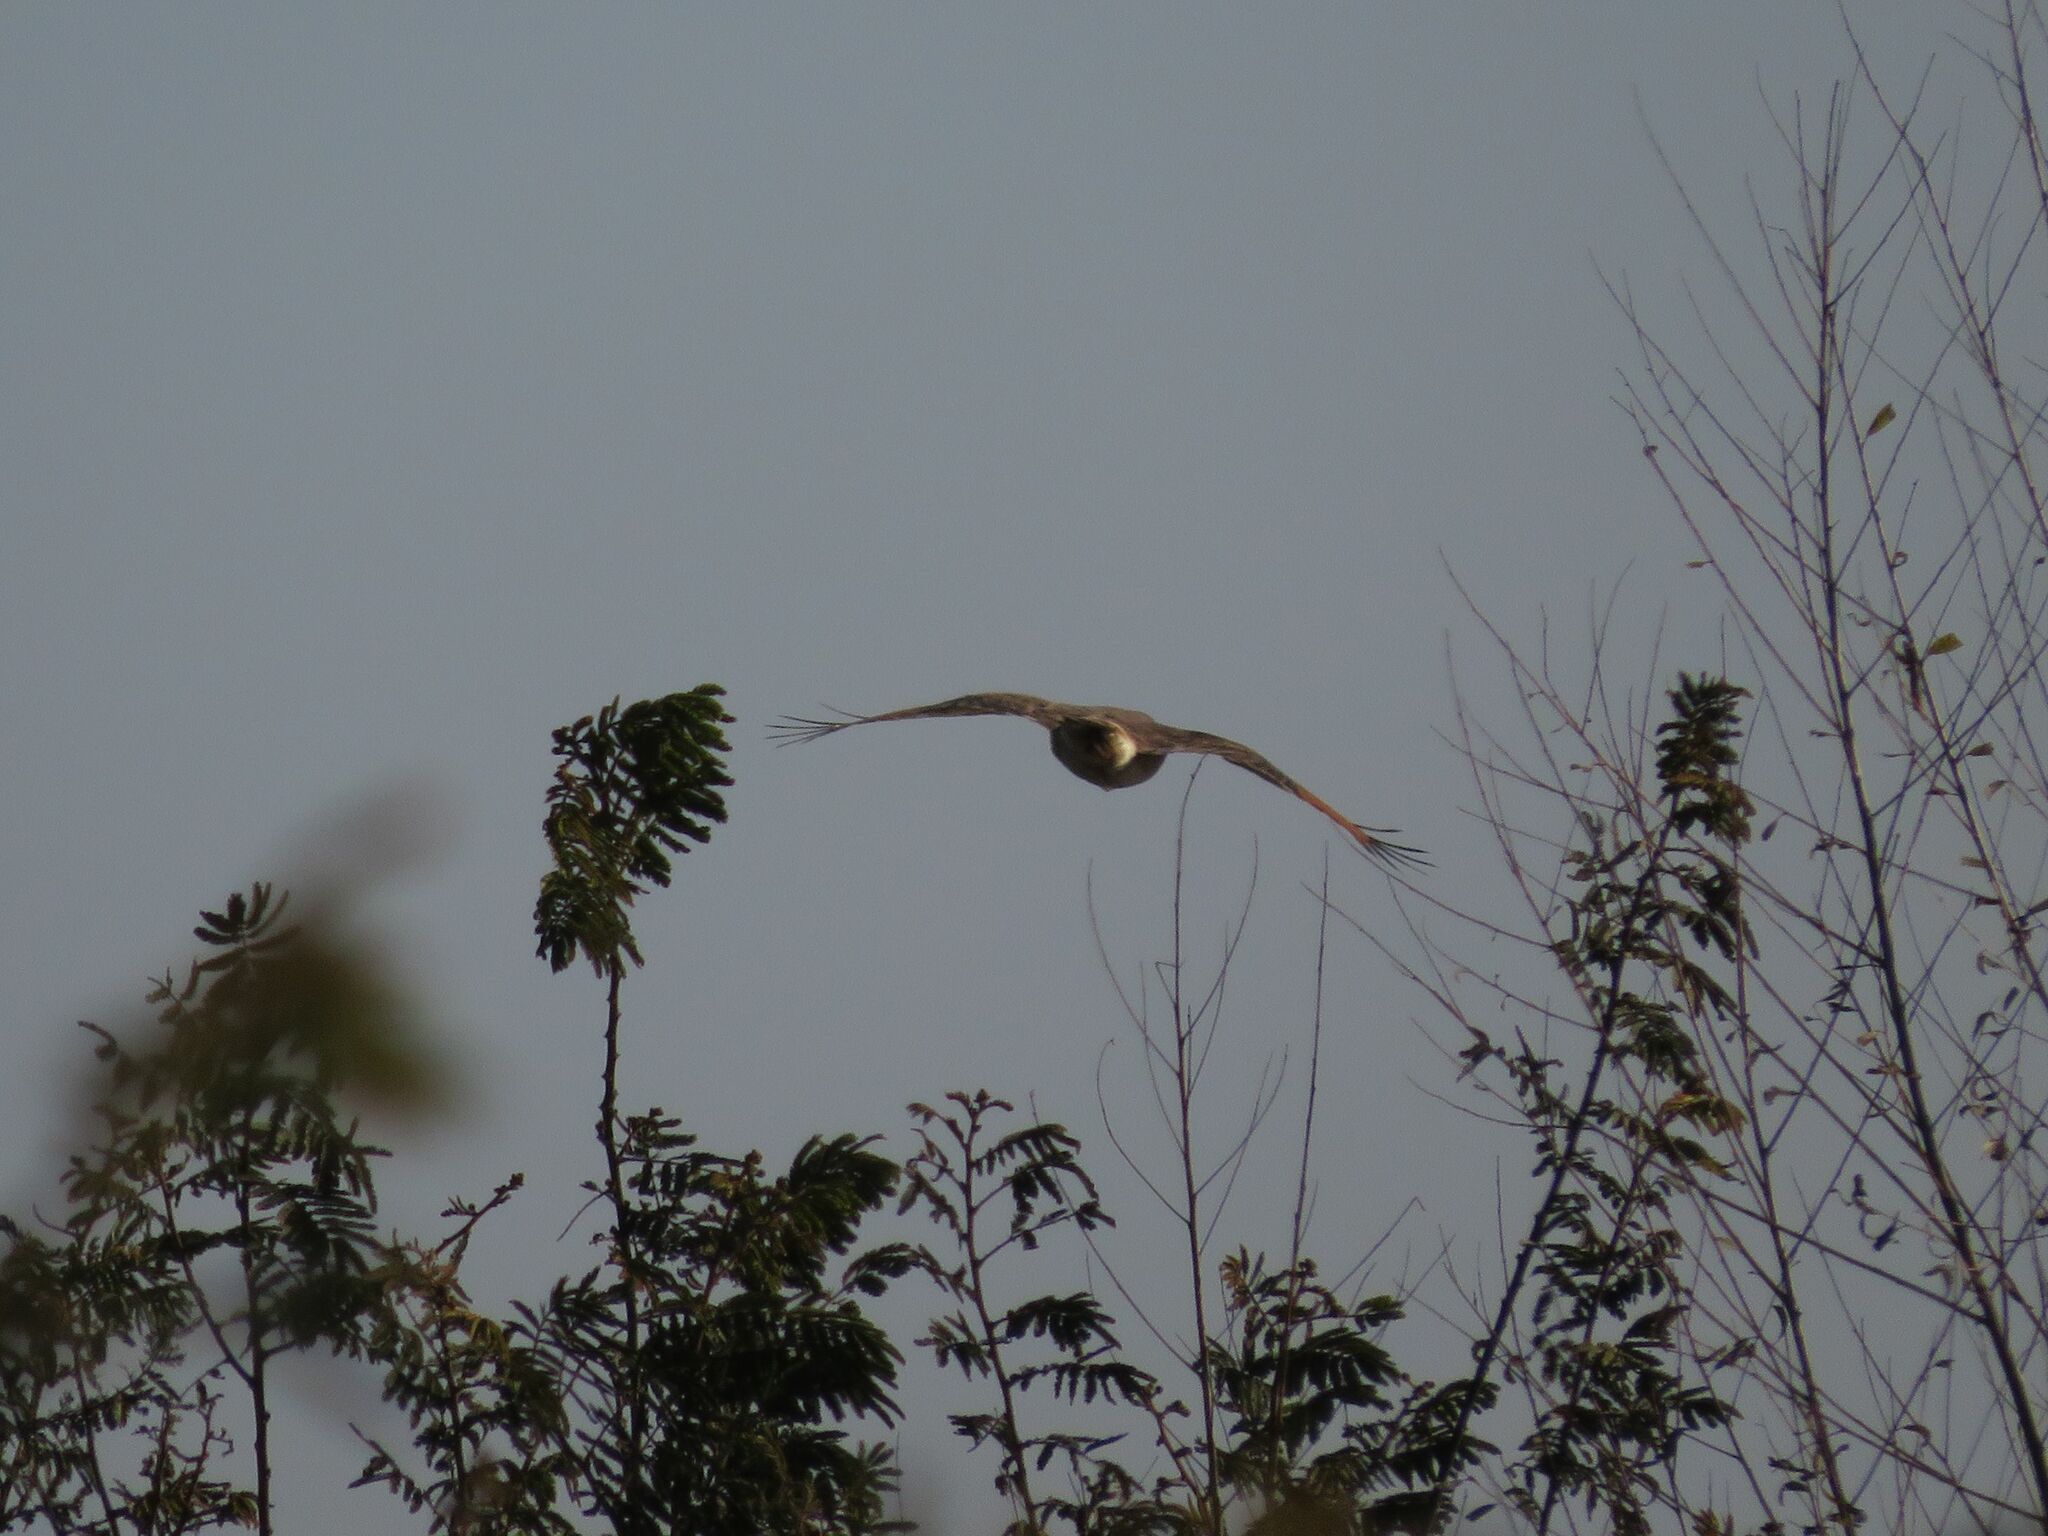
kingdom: Animalia
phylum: Chordata
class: Aves
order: Accipitriformes
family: Accipitridae
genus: Rupornis
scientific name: Rupornis magnirostris
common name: Roadside hawk
